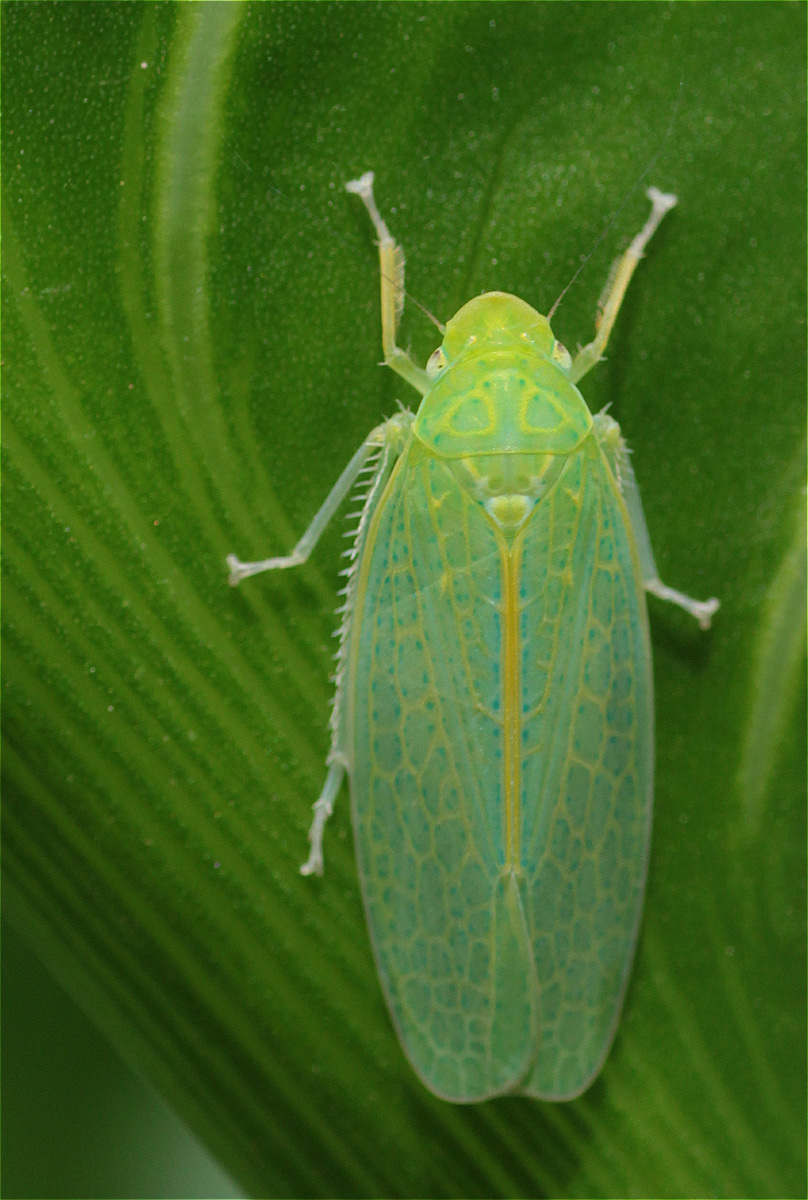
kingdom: Animalia
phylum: Arthropoda
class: Insecta
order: Hemiptera
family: Cicadellidae
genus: Onega
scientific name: Onega bracteata
